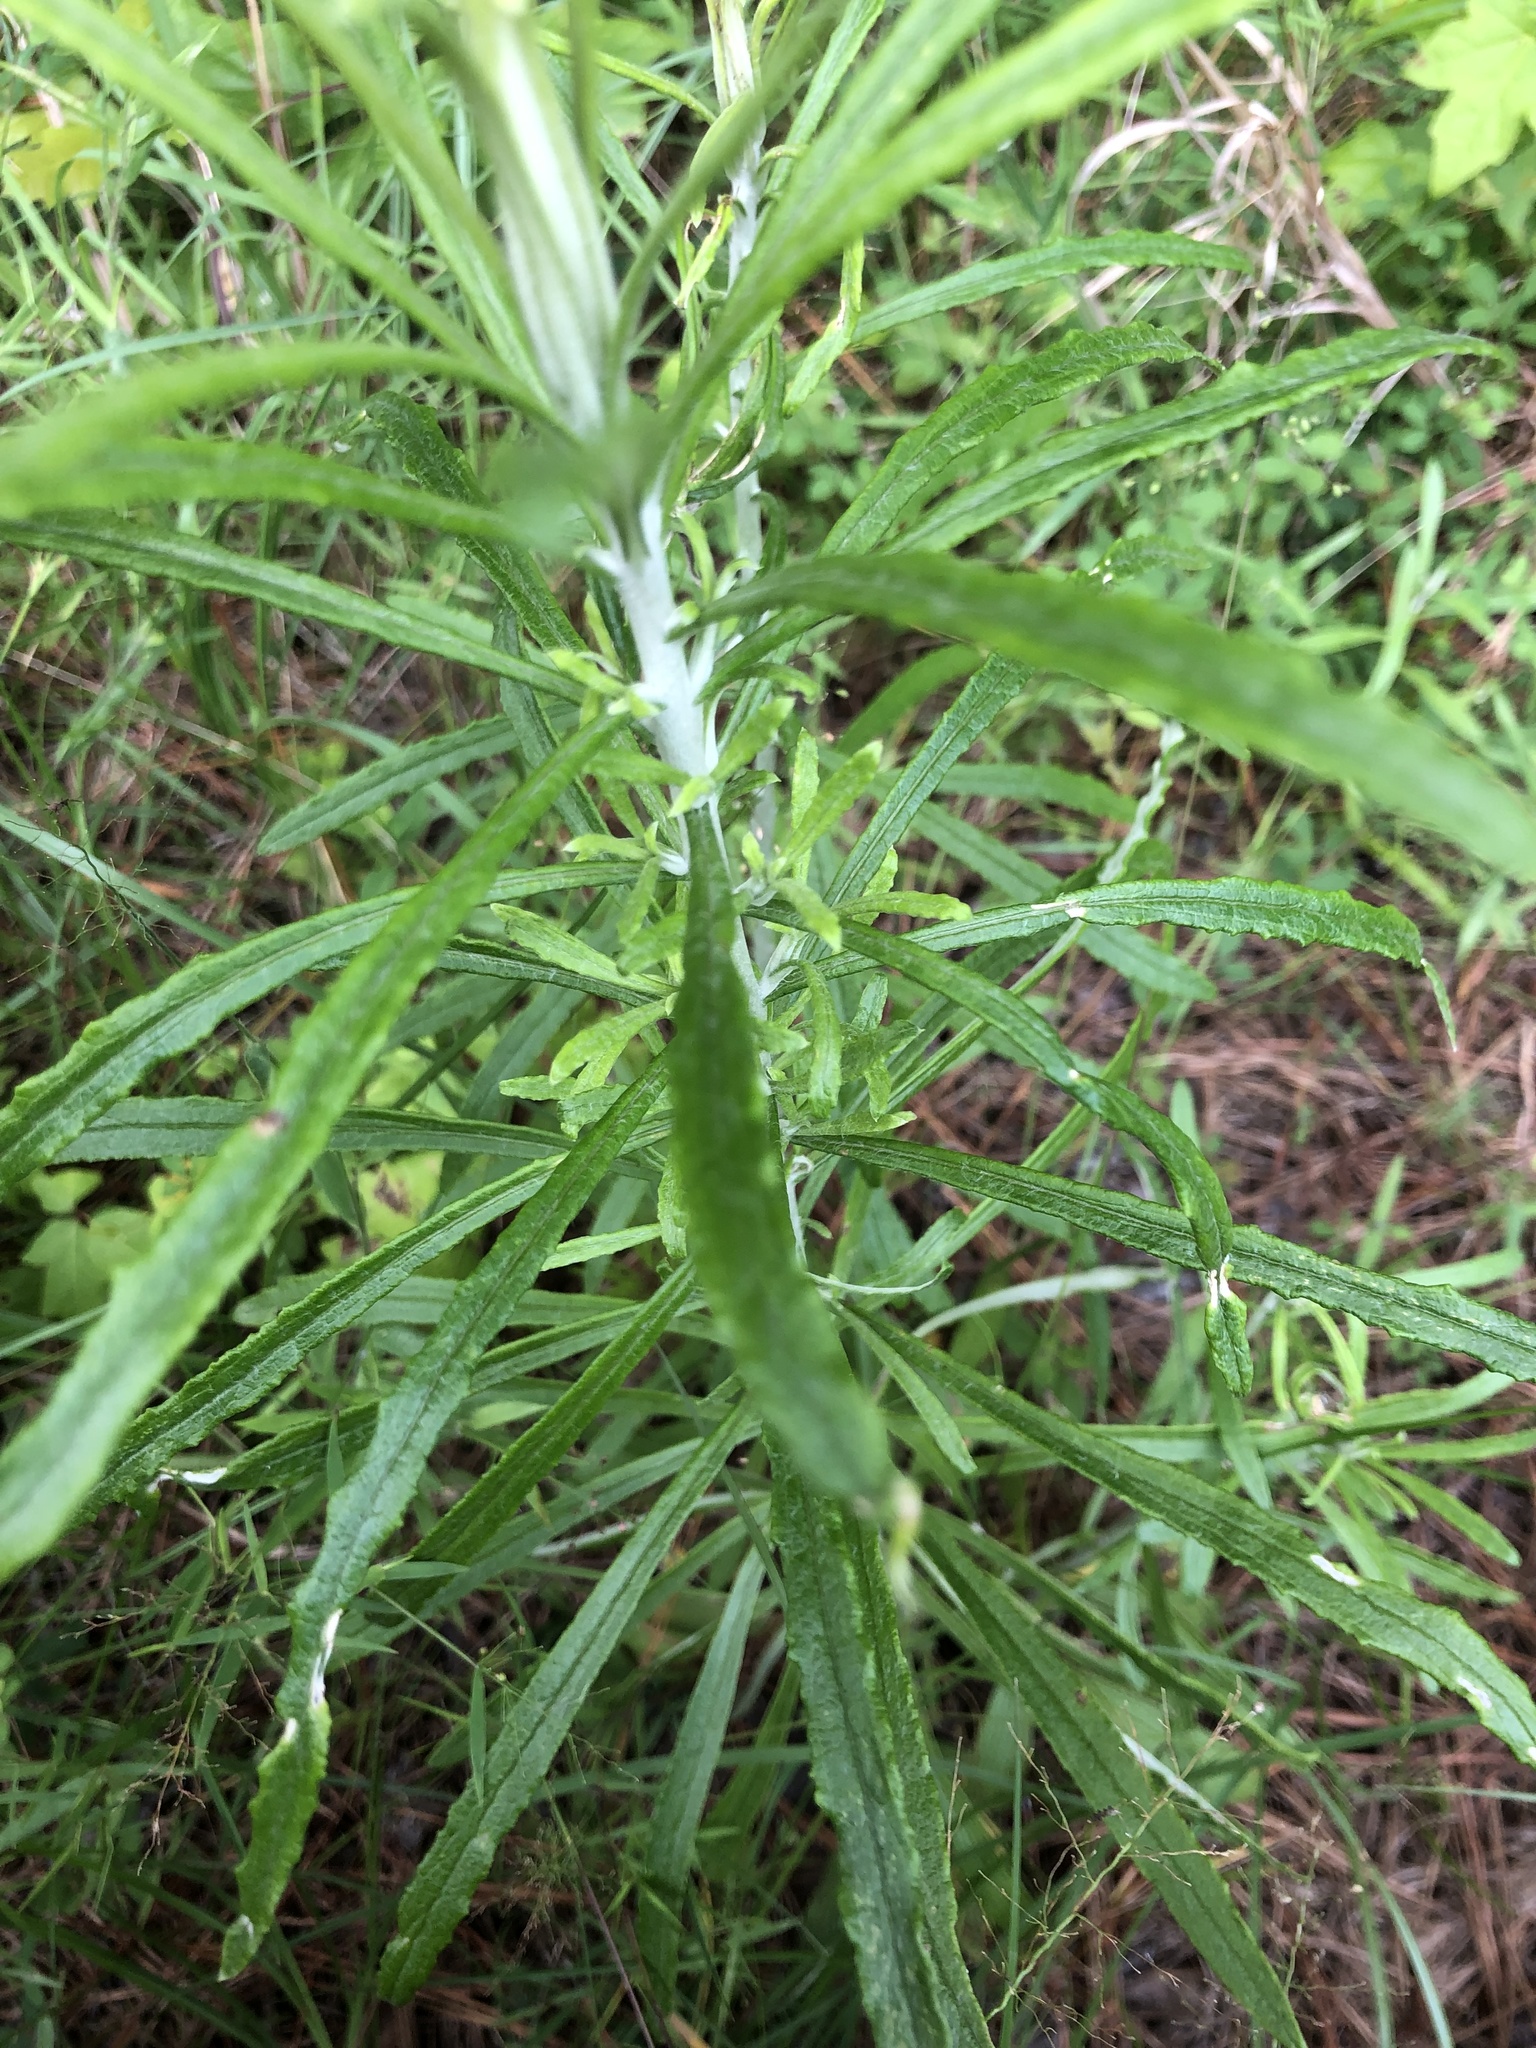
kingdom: Plantae
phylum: Tracheophyta
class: Magnoliopsida
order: Asterales
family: Asteraceae
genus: Pseudognaphalium
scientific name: Pseudognaphalium obtusifolium
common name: Eastern rabbit-tobacco
